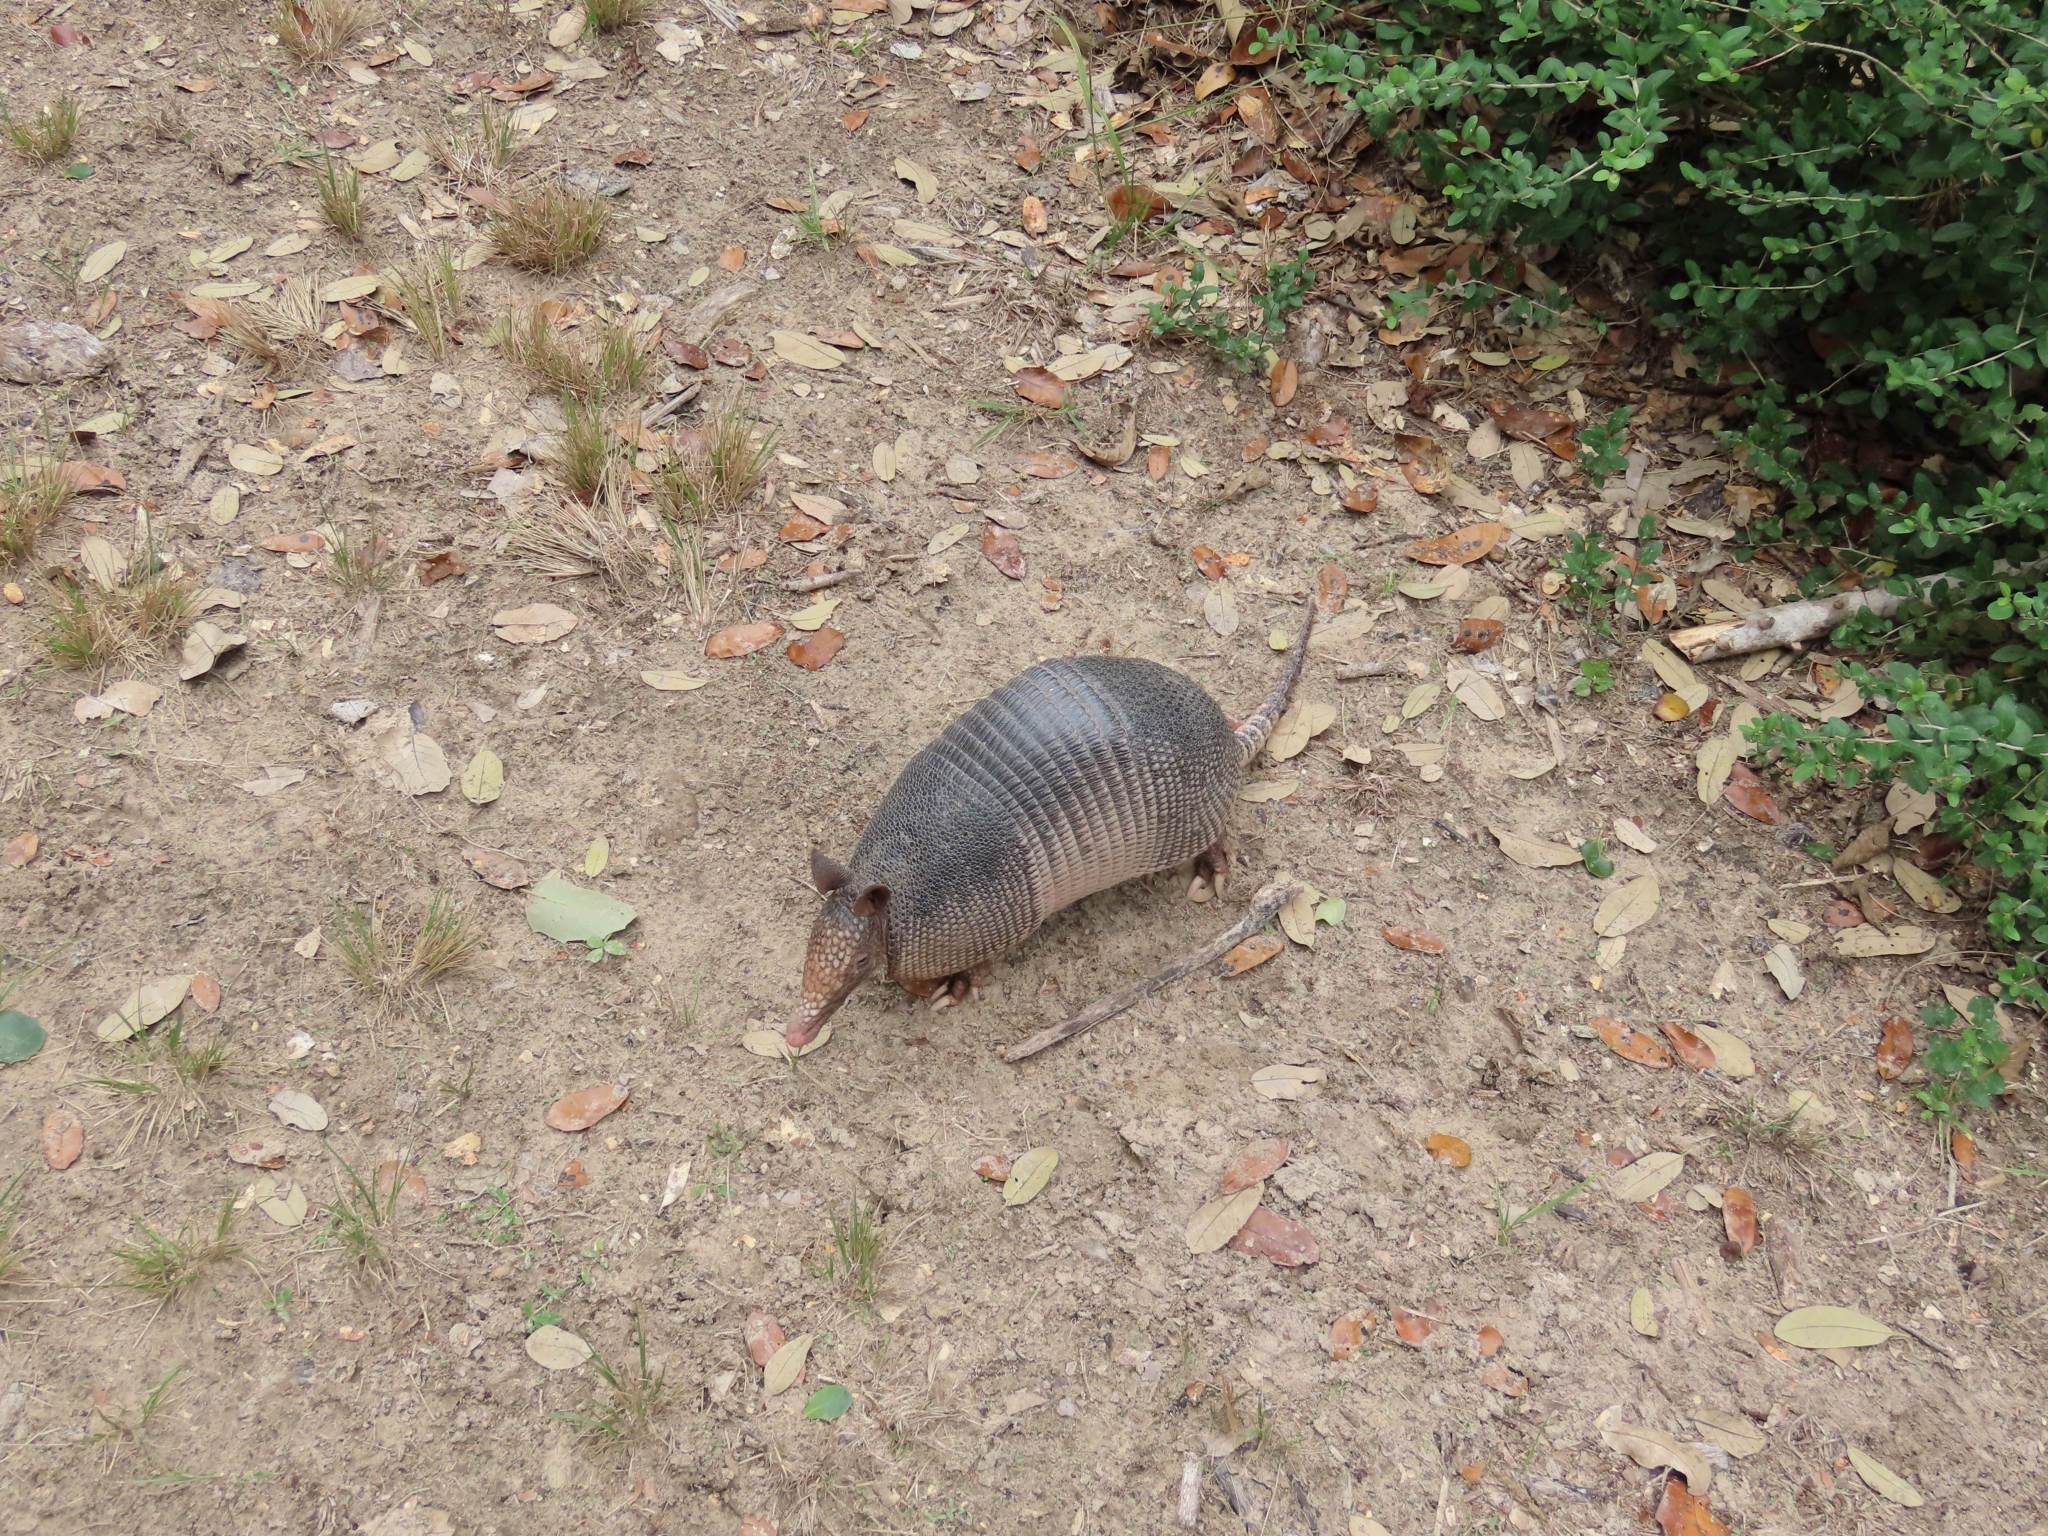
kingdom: Animalia
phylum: Chordata
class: Mammalia
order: Cingulata
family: Dasypodidae
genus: Dasypus
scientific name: Dasypus novemcinctus
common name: Nine-banded armadillo
